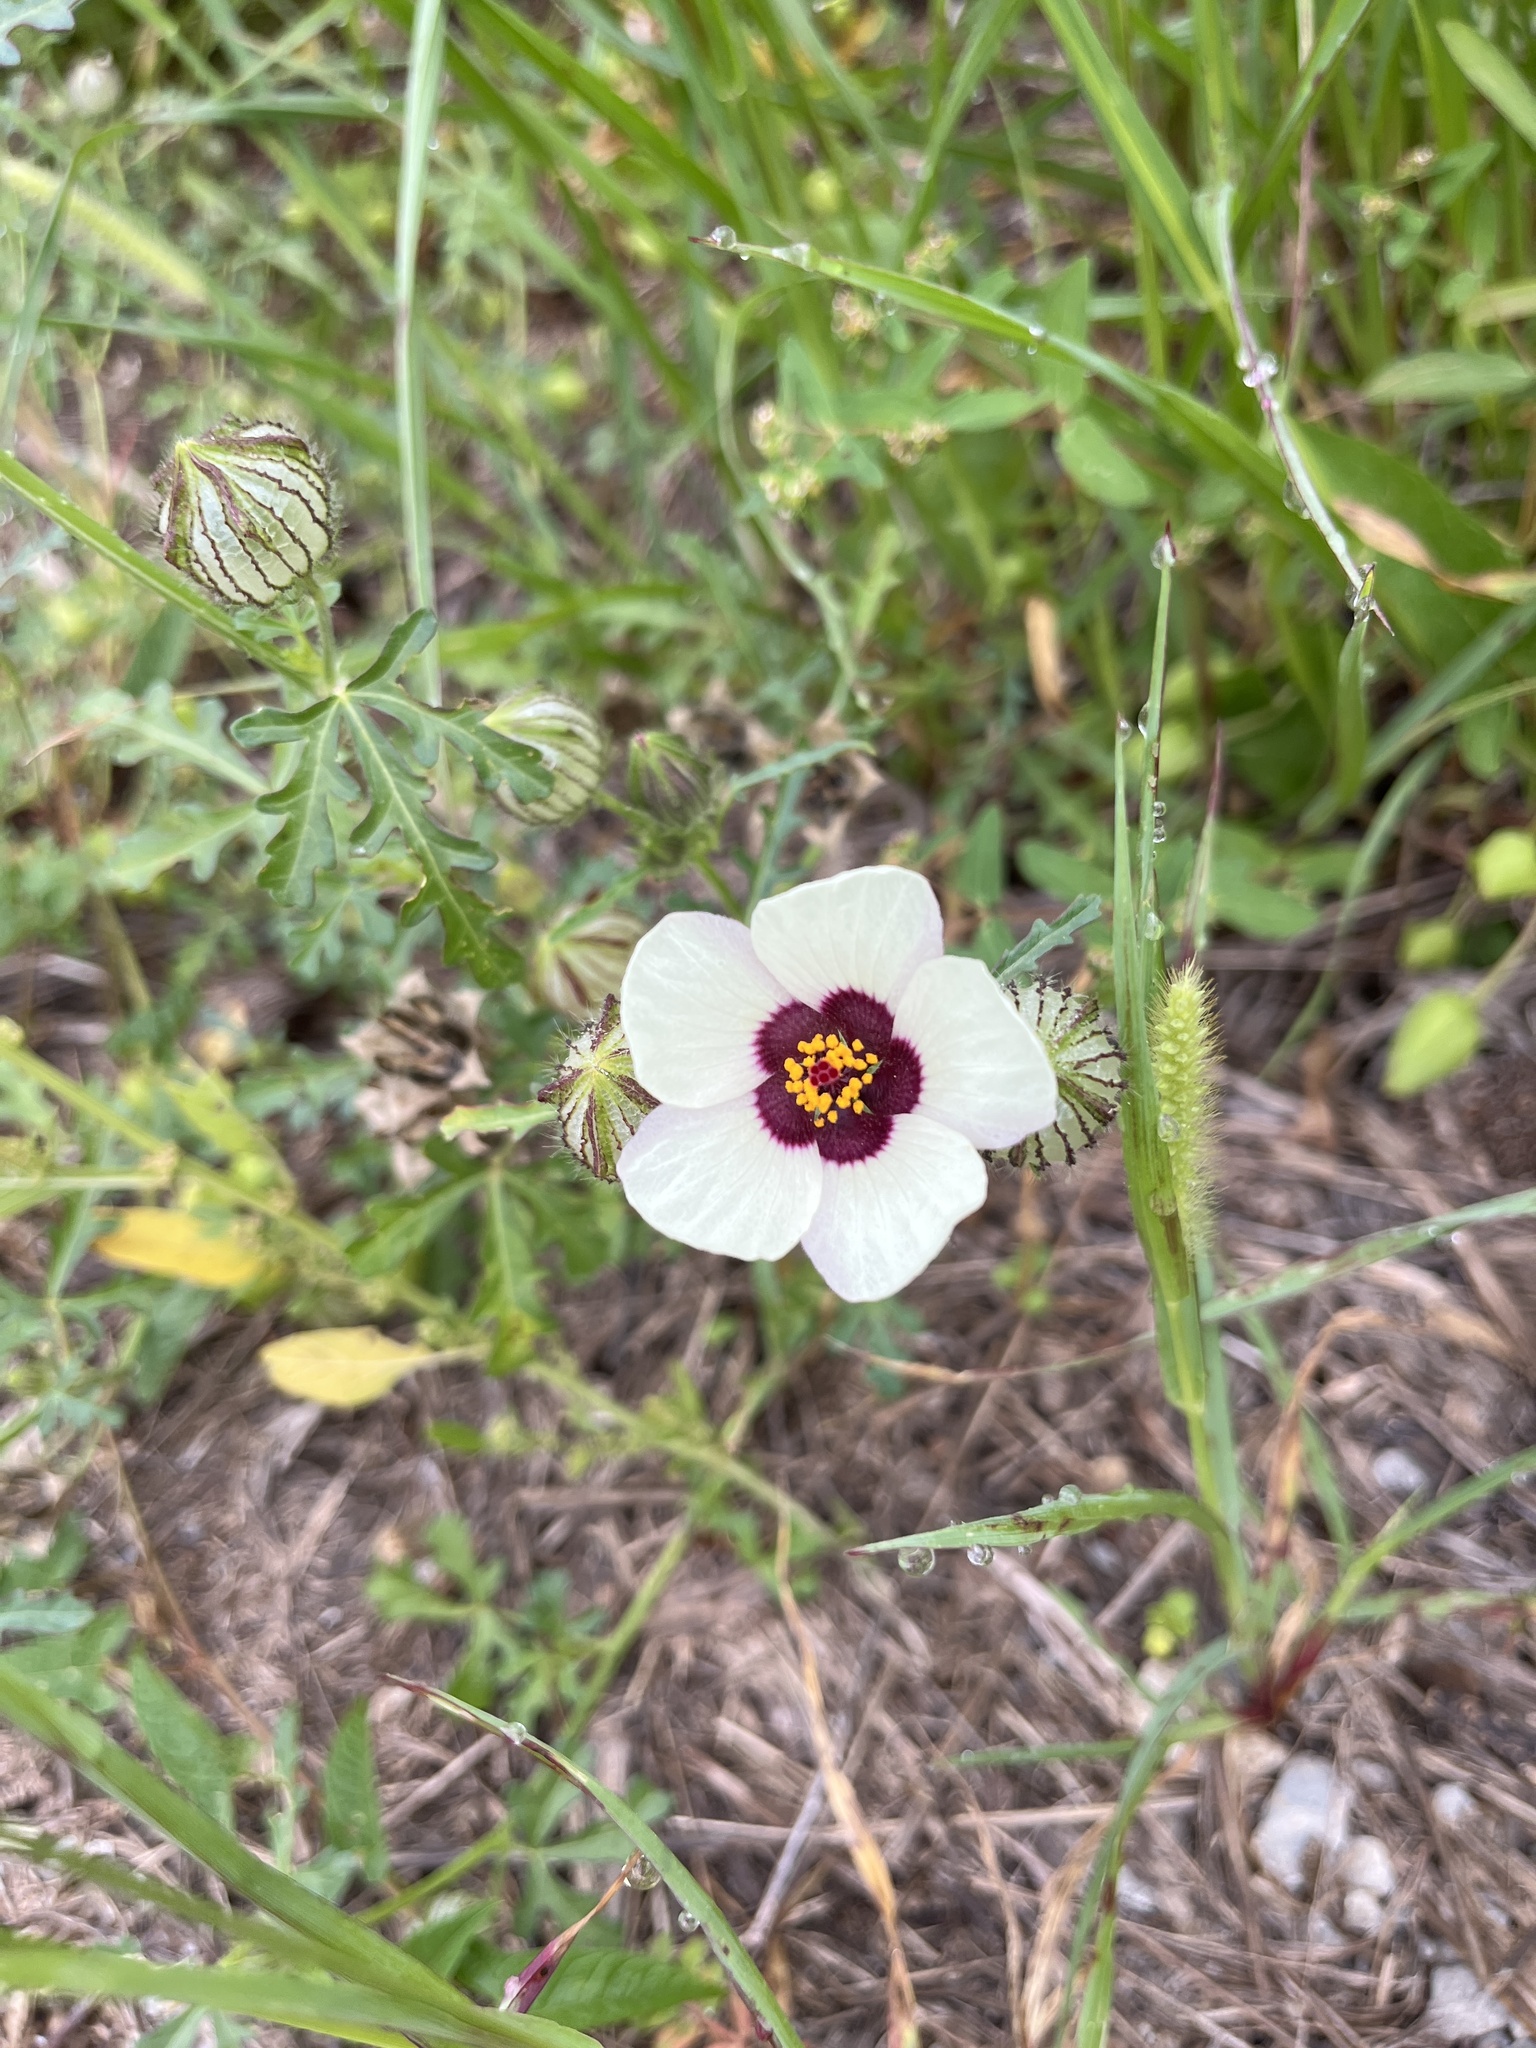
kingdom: Plantae
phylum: Tracheophyta
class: Magnoliopsida
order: Malvales
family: Malvaceae
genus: Hibiscus
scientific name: Hibiscus trionum
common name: Bladder ketmia
